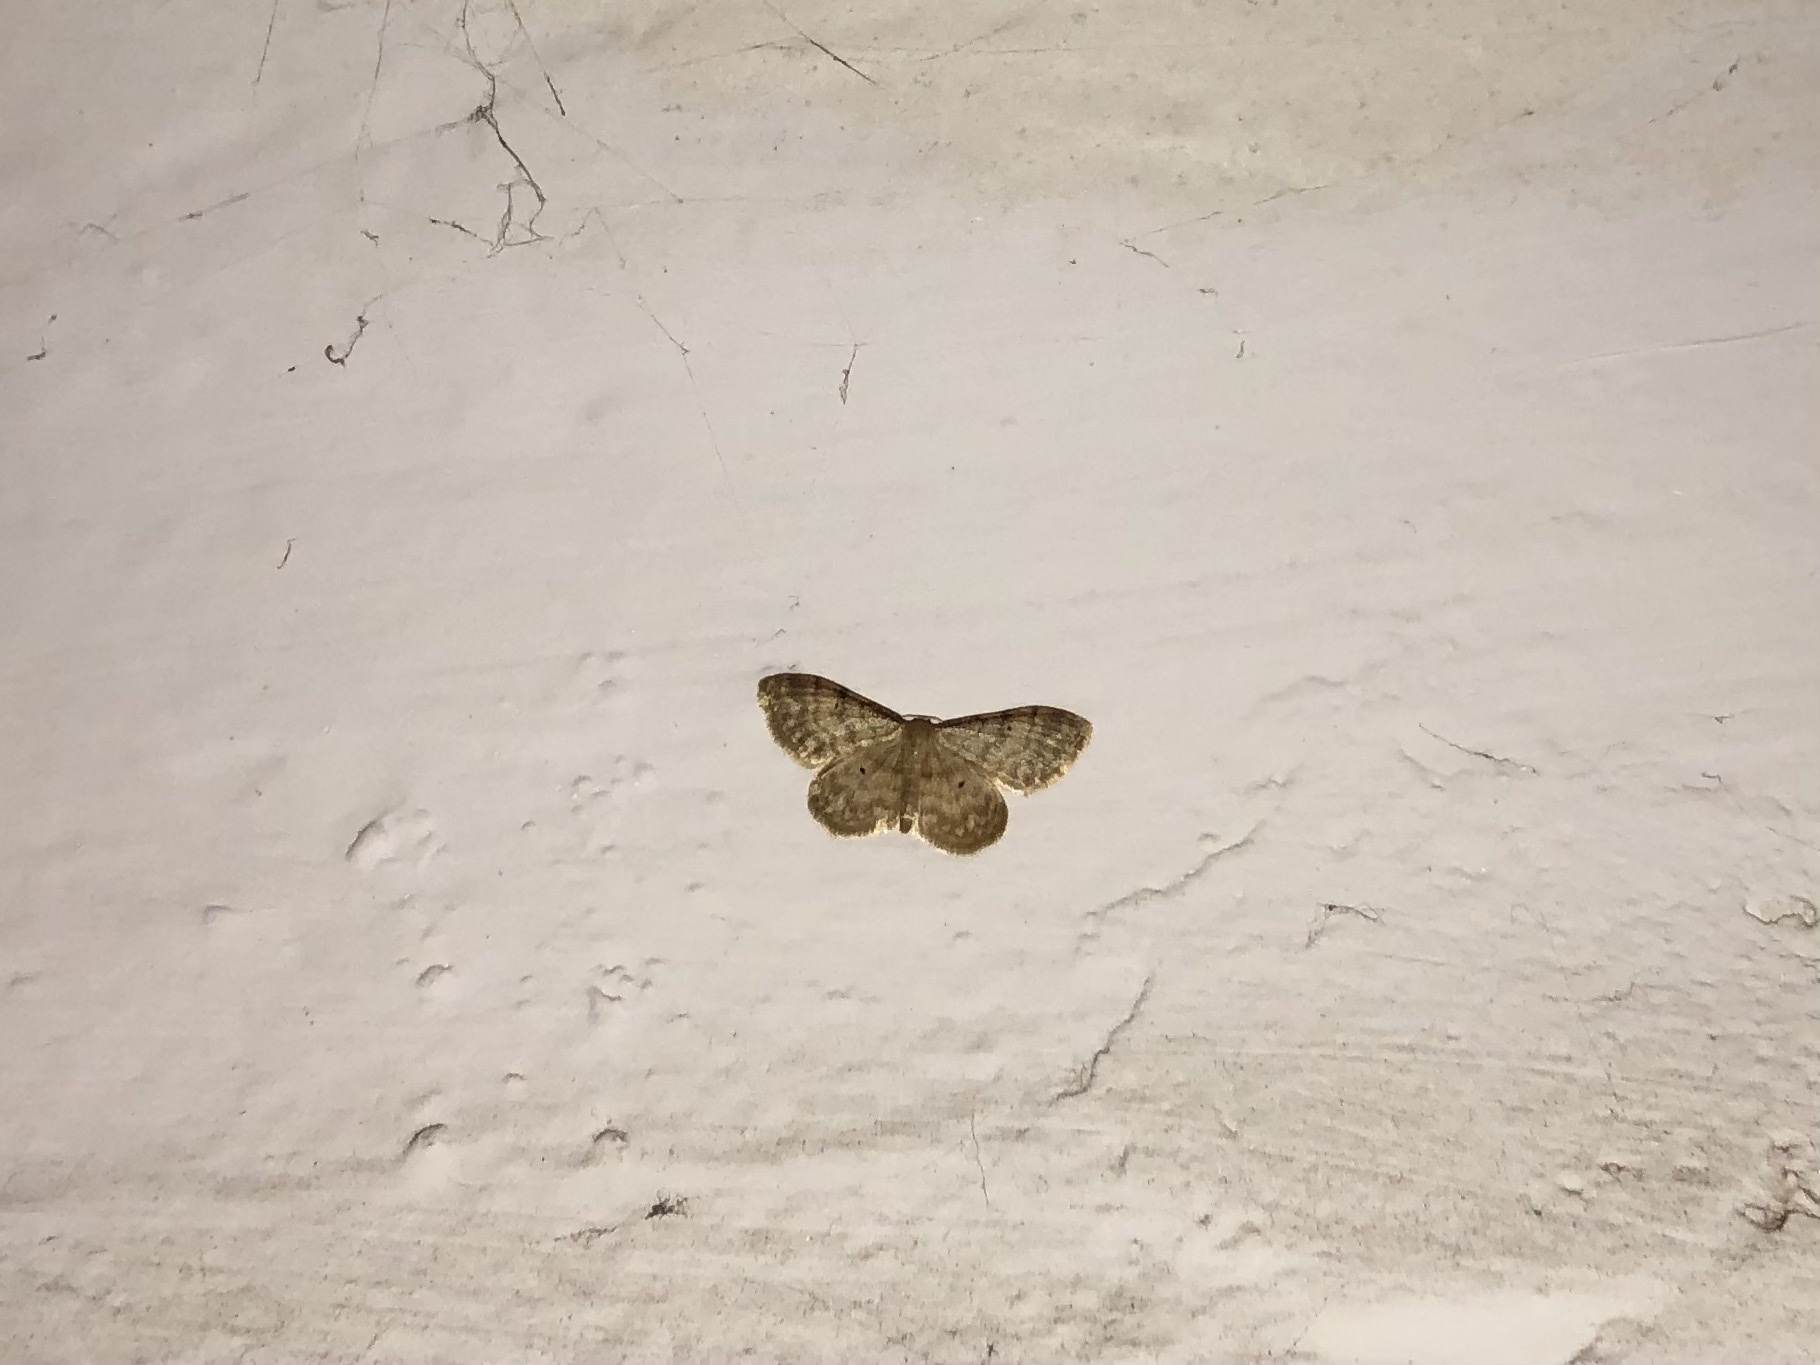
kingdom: Animalia
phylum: Arthropoda
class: Insecta
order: Lepidoptera
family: Geometridae
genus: Idaea
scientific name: Idaea fuscovenosa
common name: Dwarf cream wave
